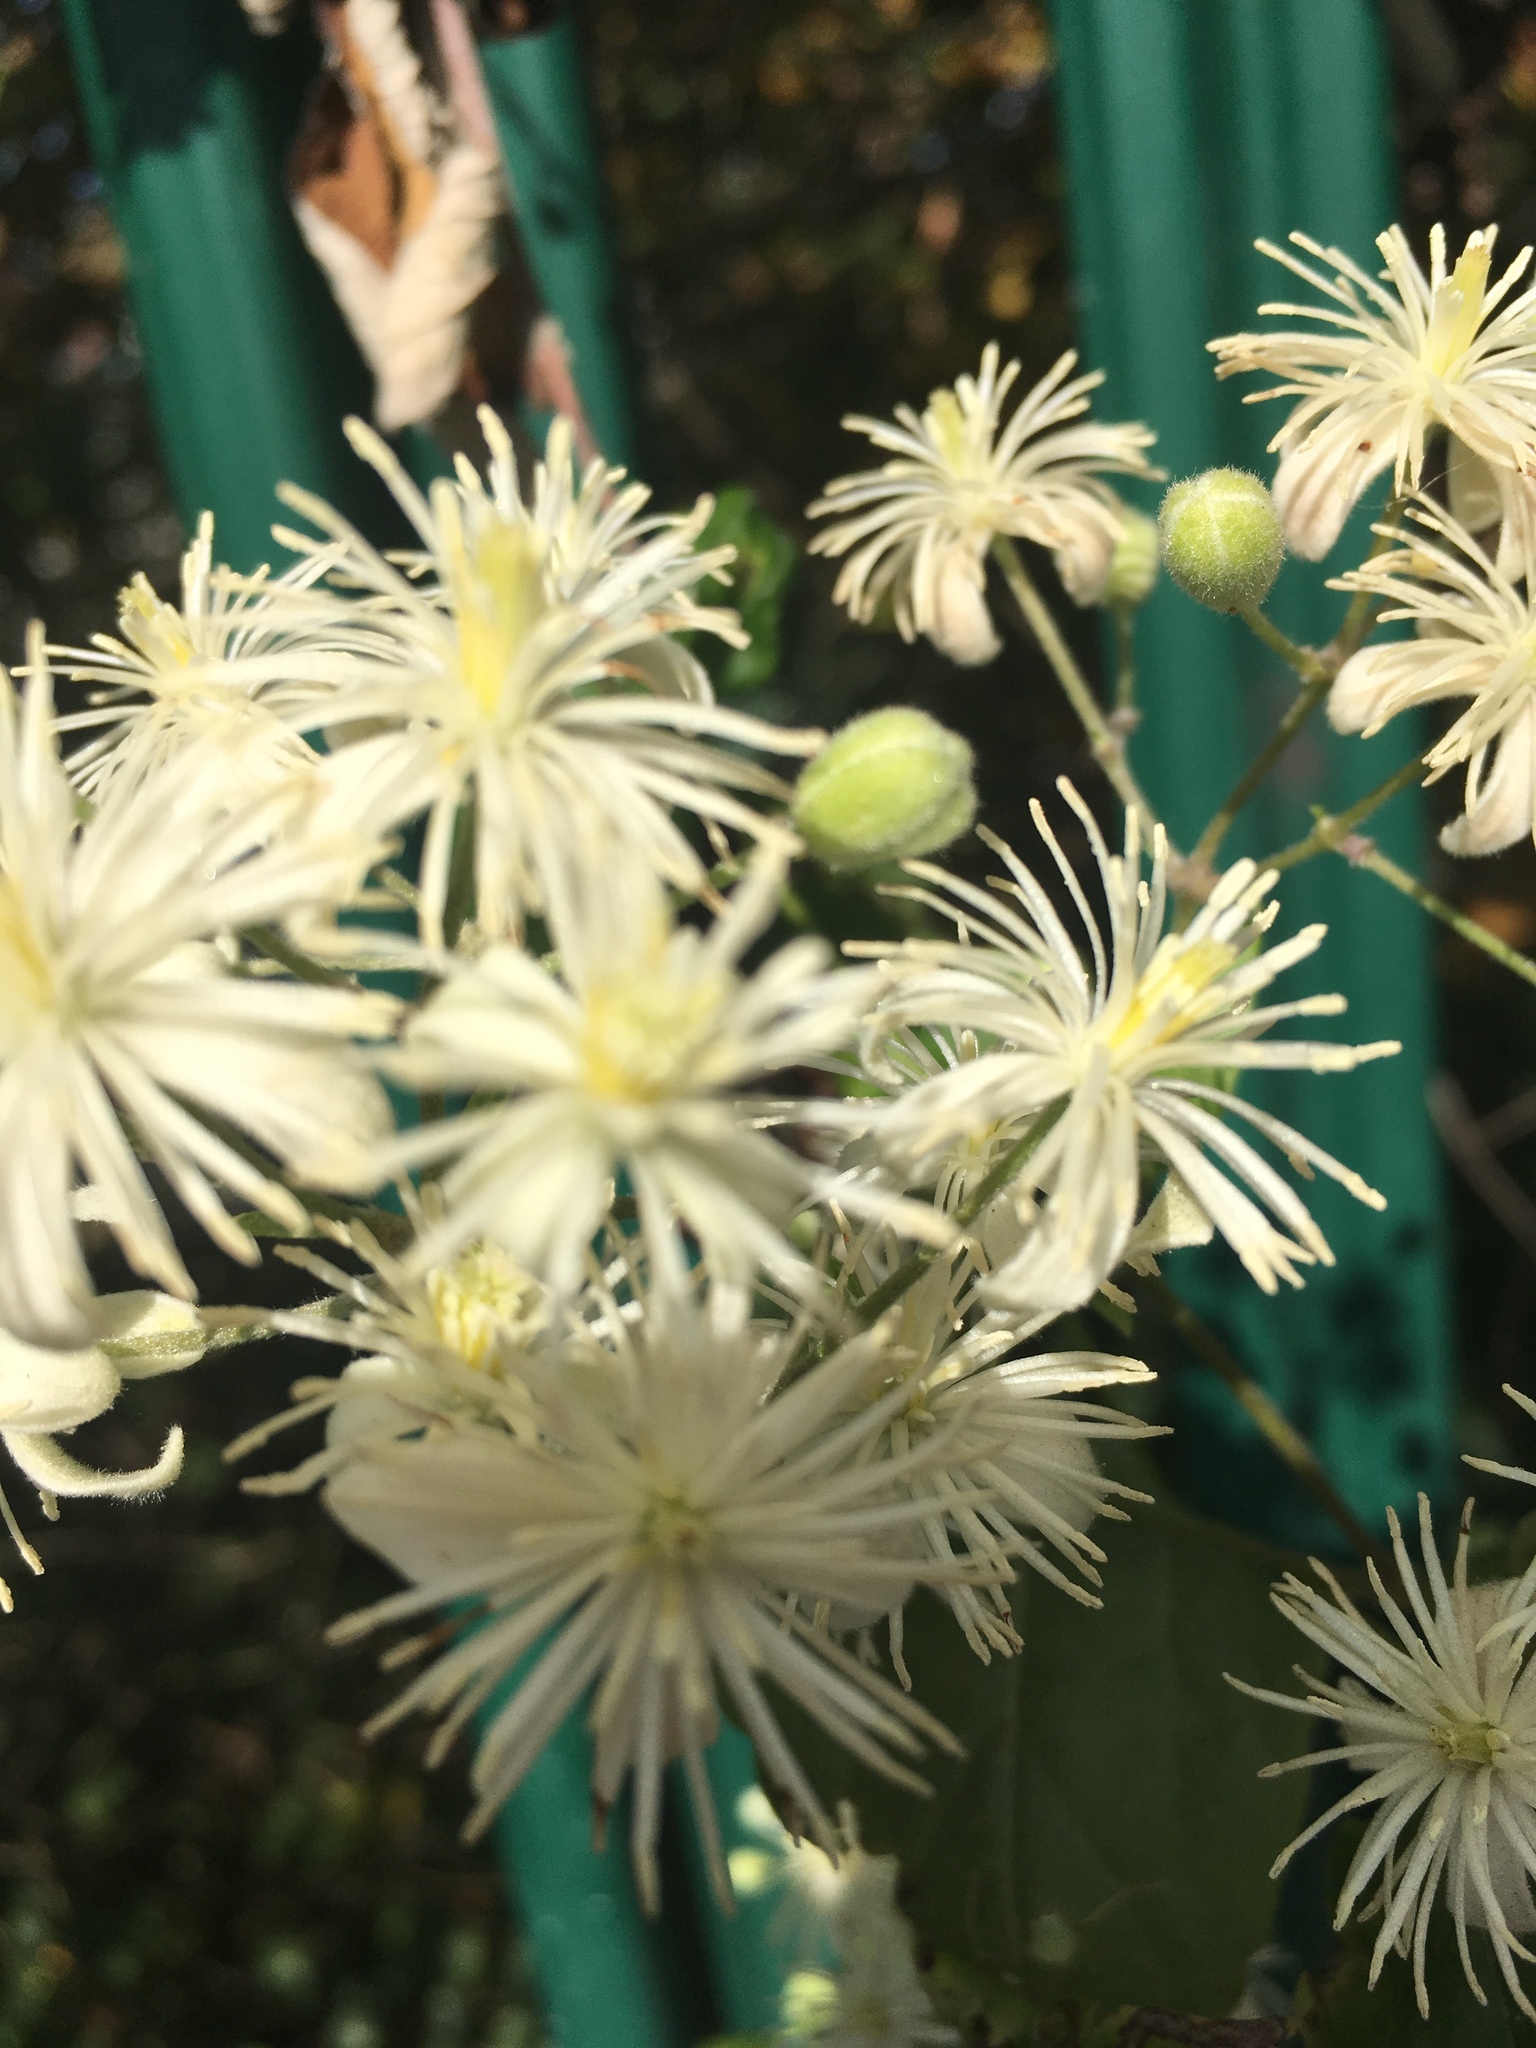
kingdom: Plantae
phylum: Tracheophyta
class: Magnoliopsida
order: Ranunculales
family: Ranunculaceae
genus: Clematis
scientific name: Clematis vitalba
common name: Evergreen clematis
